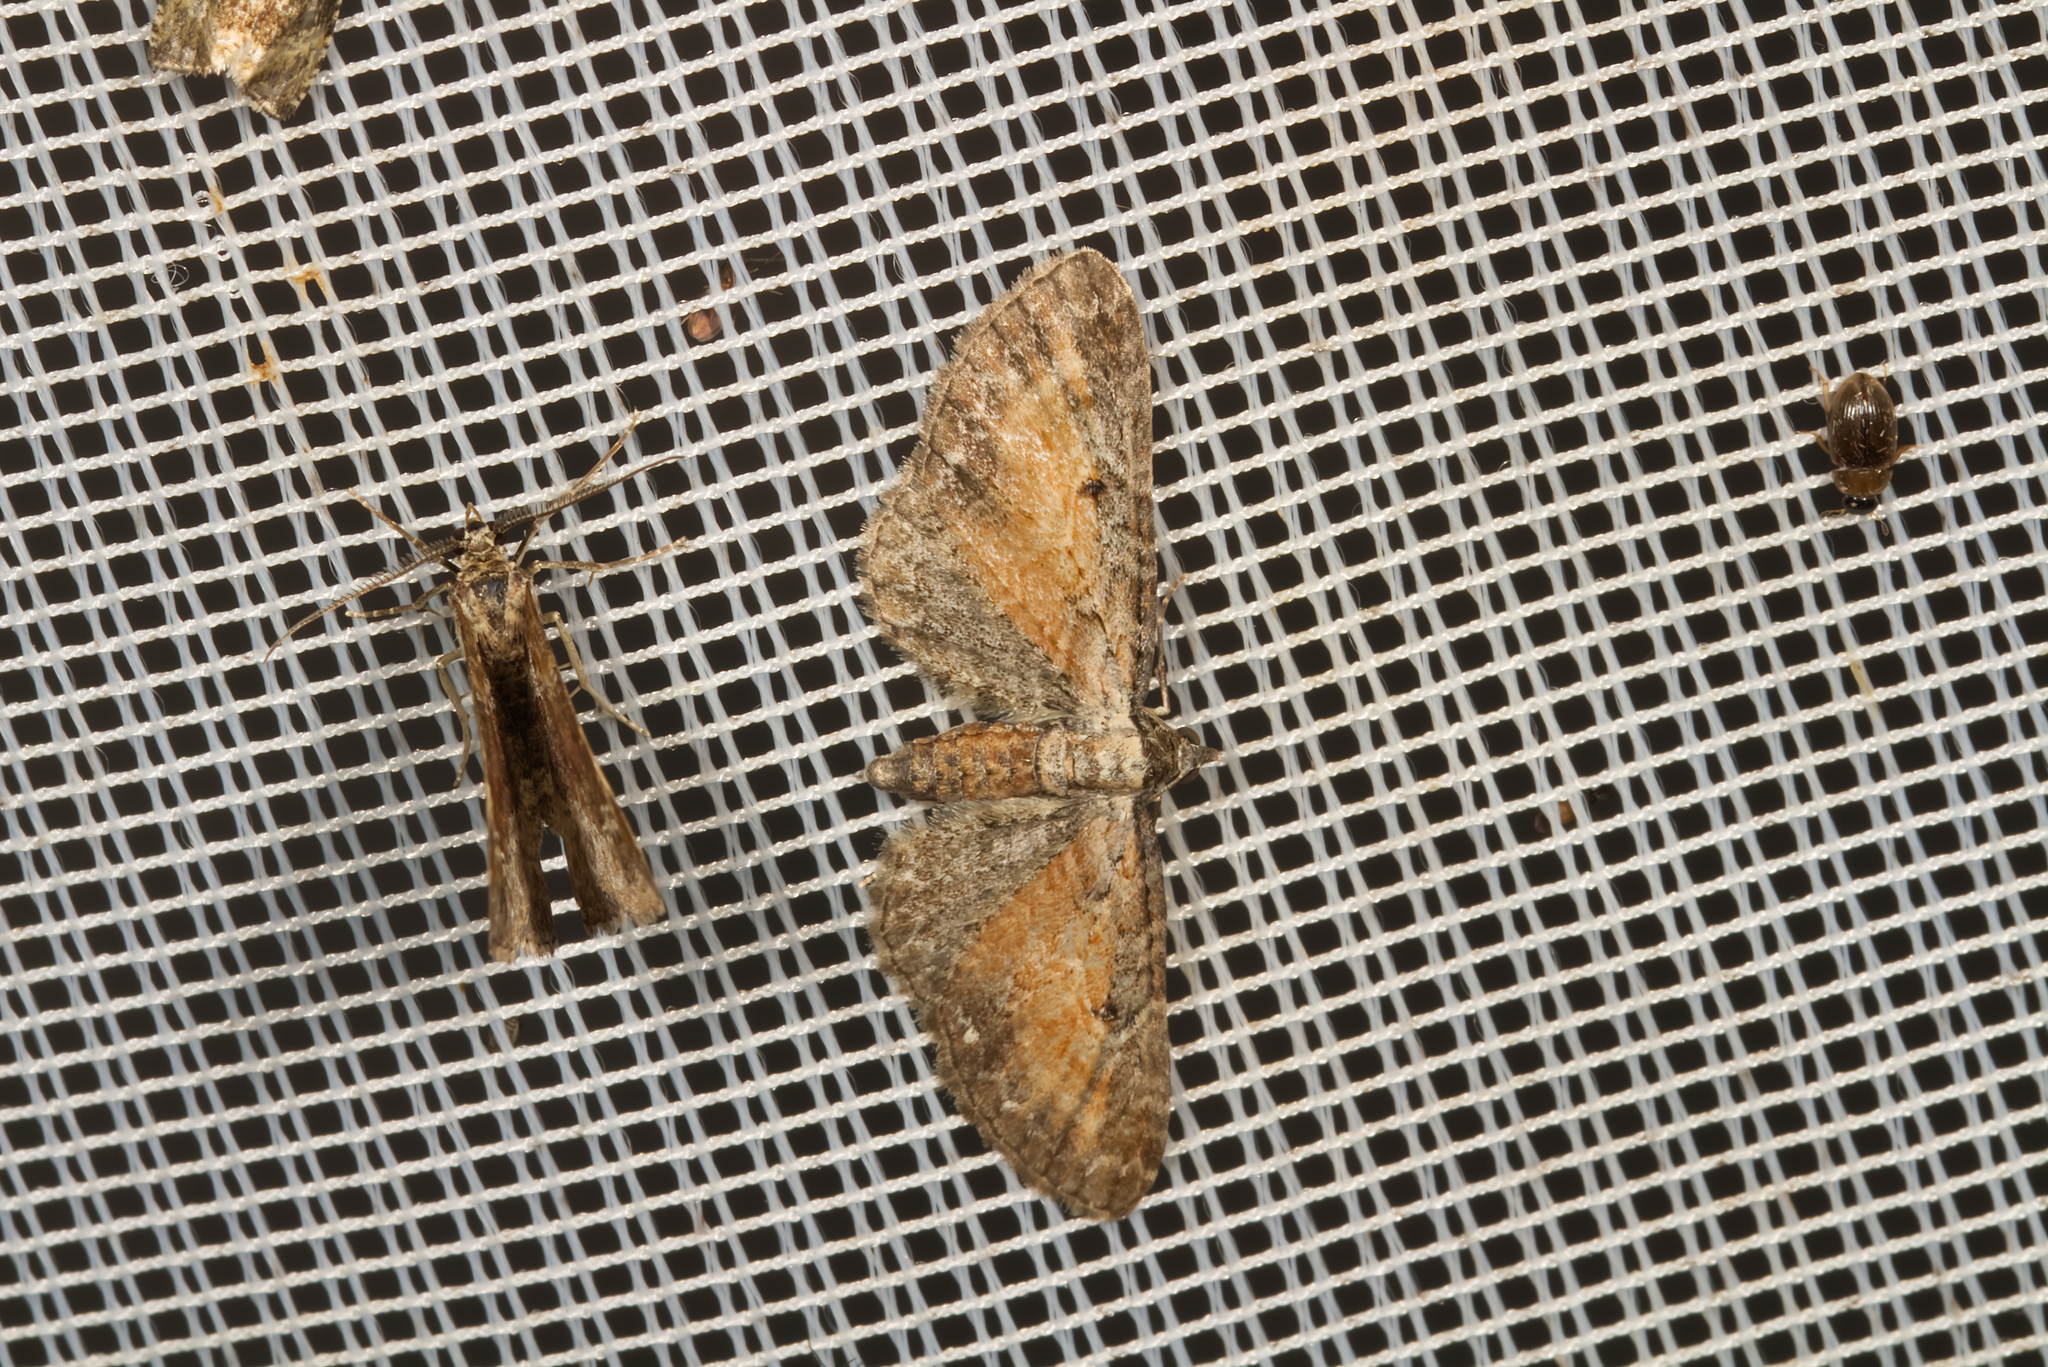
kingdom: Animalia
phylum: Arthropoda
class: Insecta
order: Lepidoptera
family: Geometridae
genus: Eupithecia
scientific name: Eupithecia icterata
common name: Tawny speckled pug
